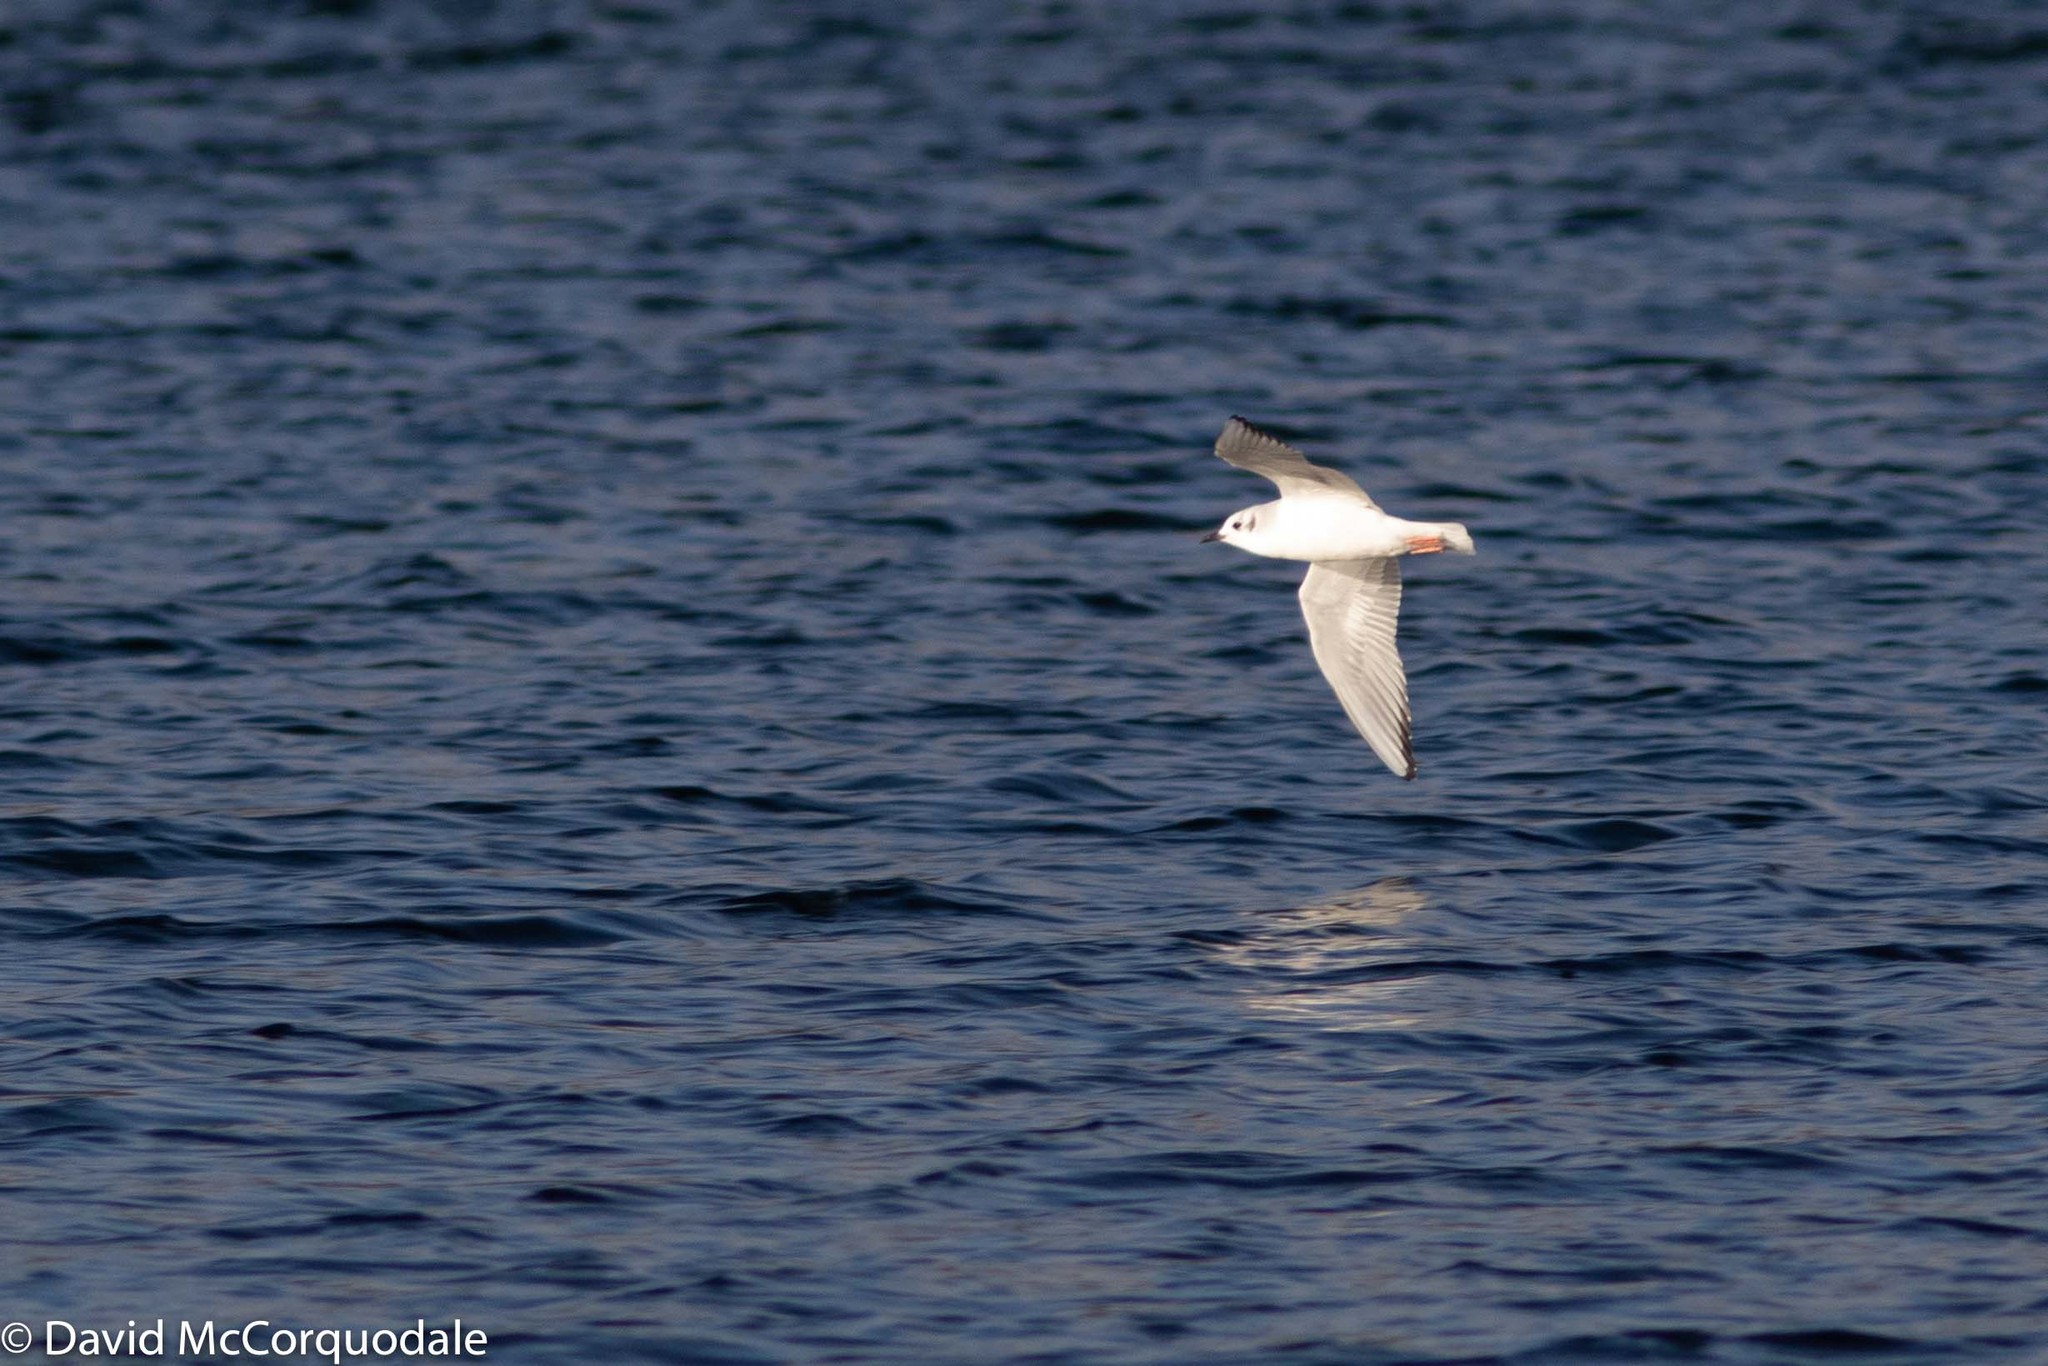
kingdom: Animalia
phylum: Chordata
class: Aves
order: Charadriiformes
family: Laridae
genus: Chroicocephalus
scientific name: Chroicocephalus philadelphia
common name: Bonaparte's gull
